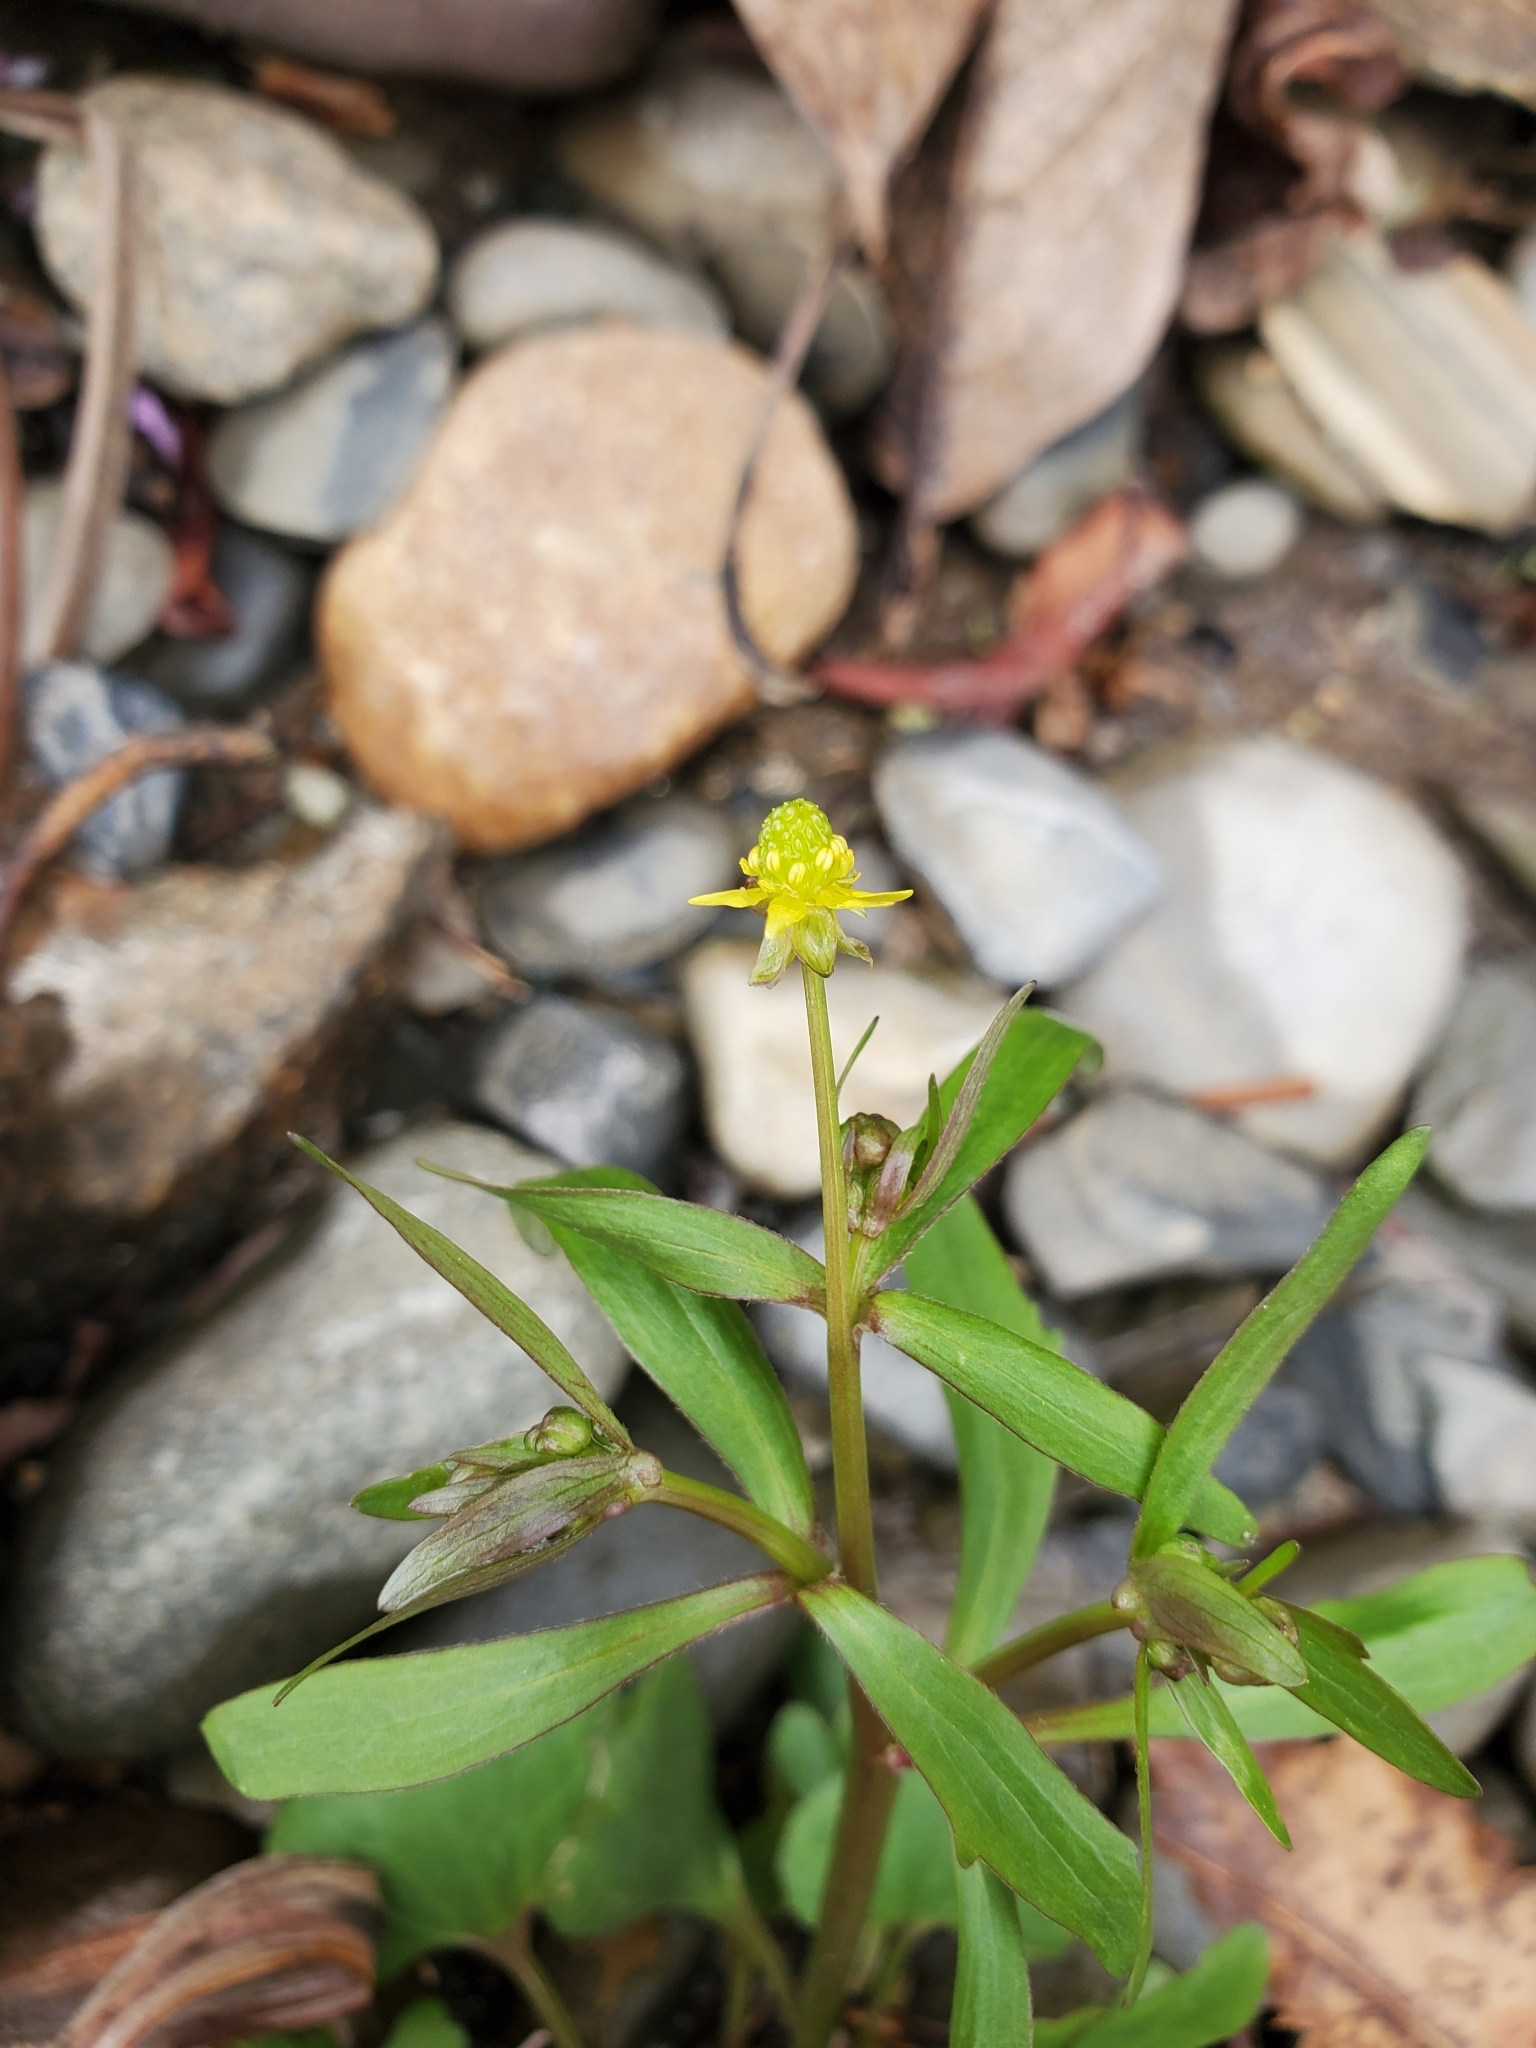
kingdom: Plantae
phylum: Tracheophyta
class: Magnoliopsida
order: Ranunculales
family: Ranunculaceae
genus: Ranunculus
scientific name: Ranunculus abortivus
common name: Early wood buttercup
